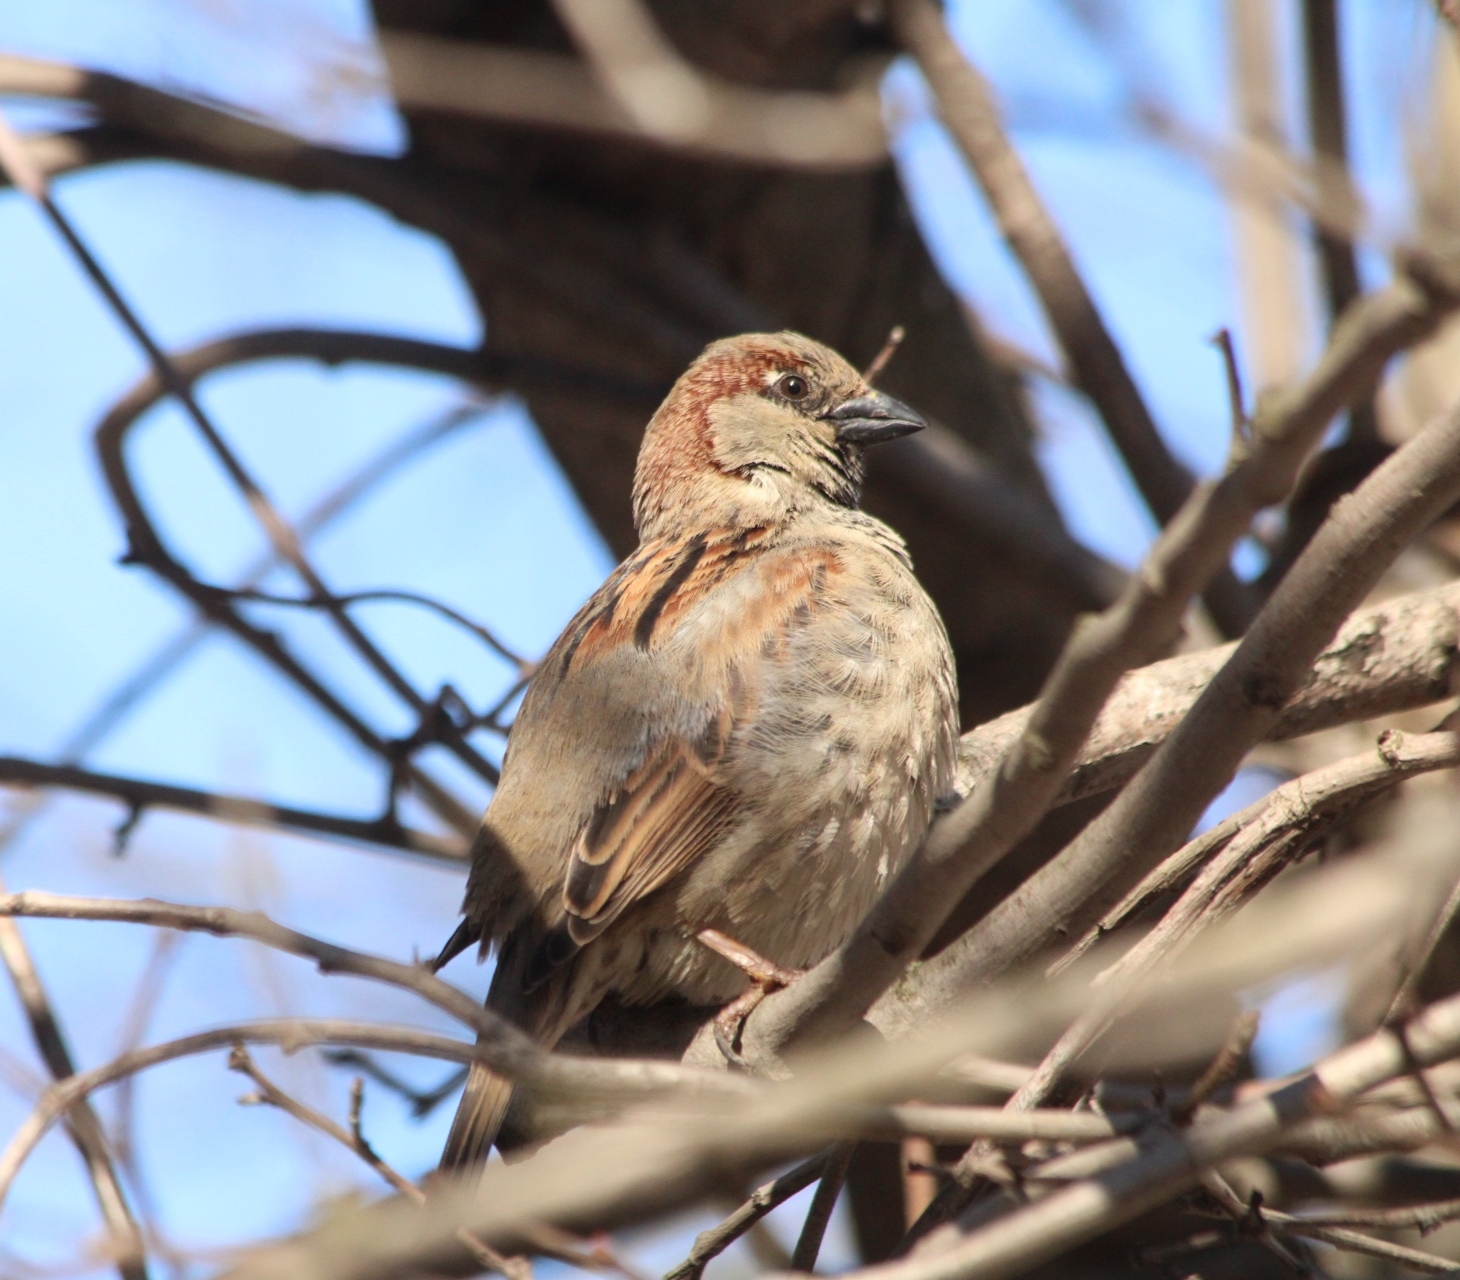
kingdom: Animalia
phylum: Chordata
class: Aves
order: Passeriformes
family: Passeridae
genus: Passer
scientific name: Passer domesticus
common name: House sparrow
